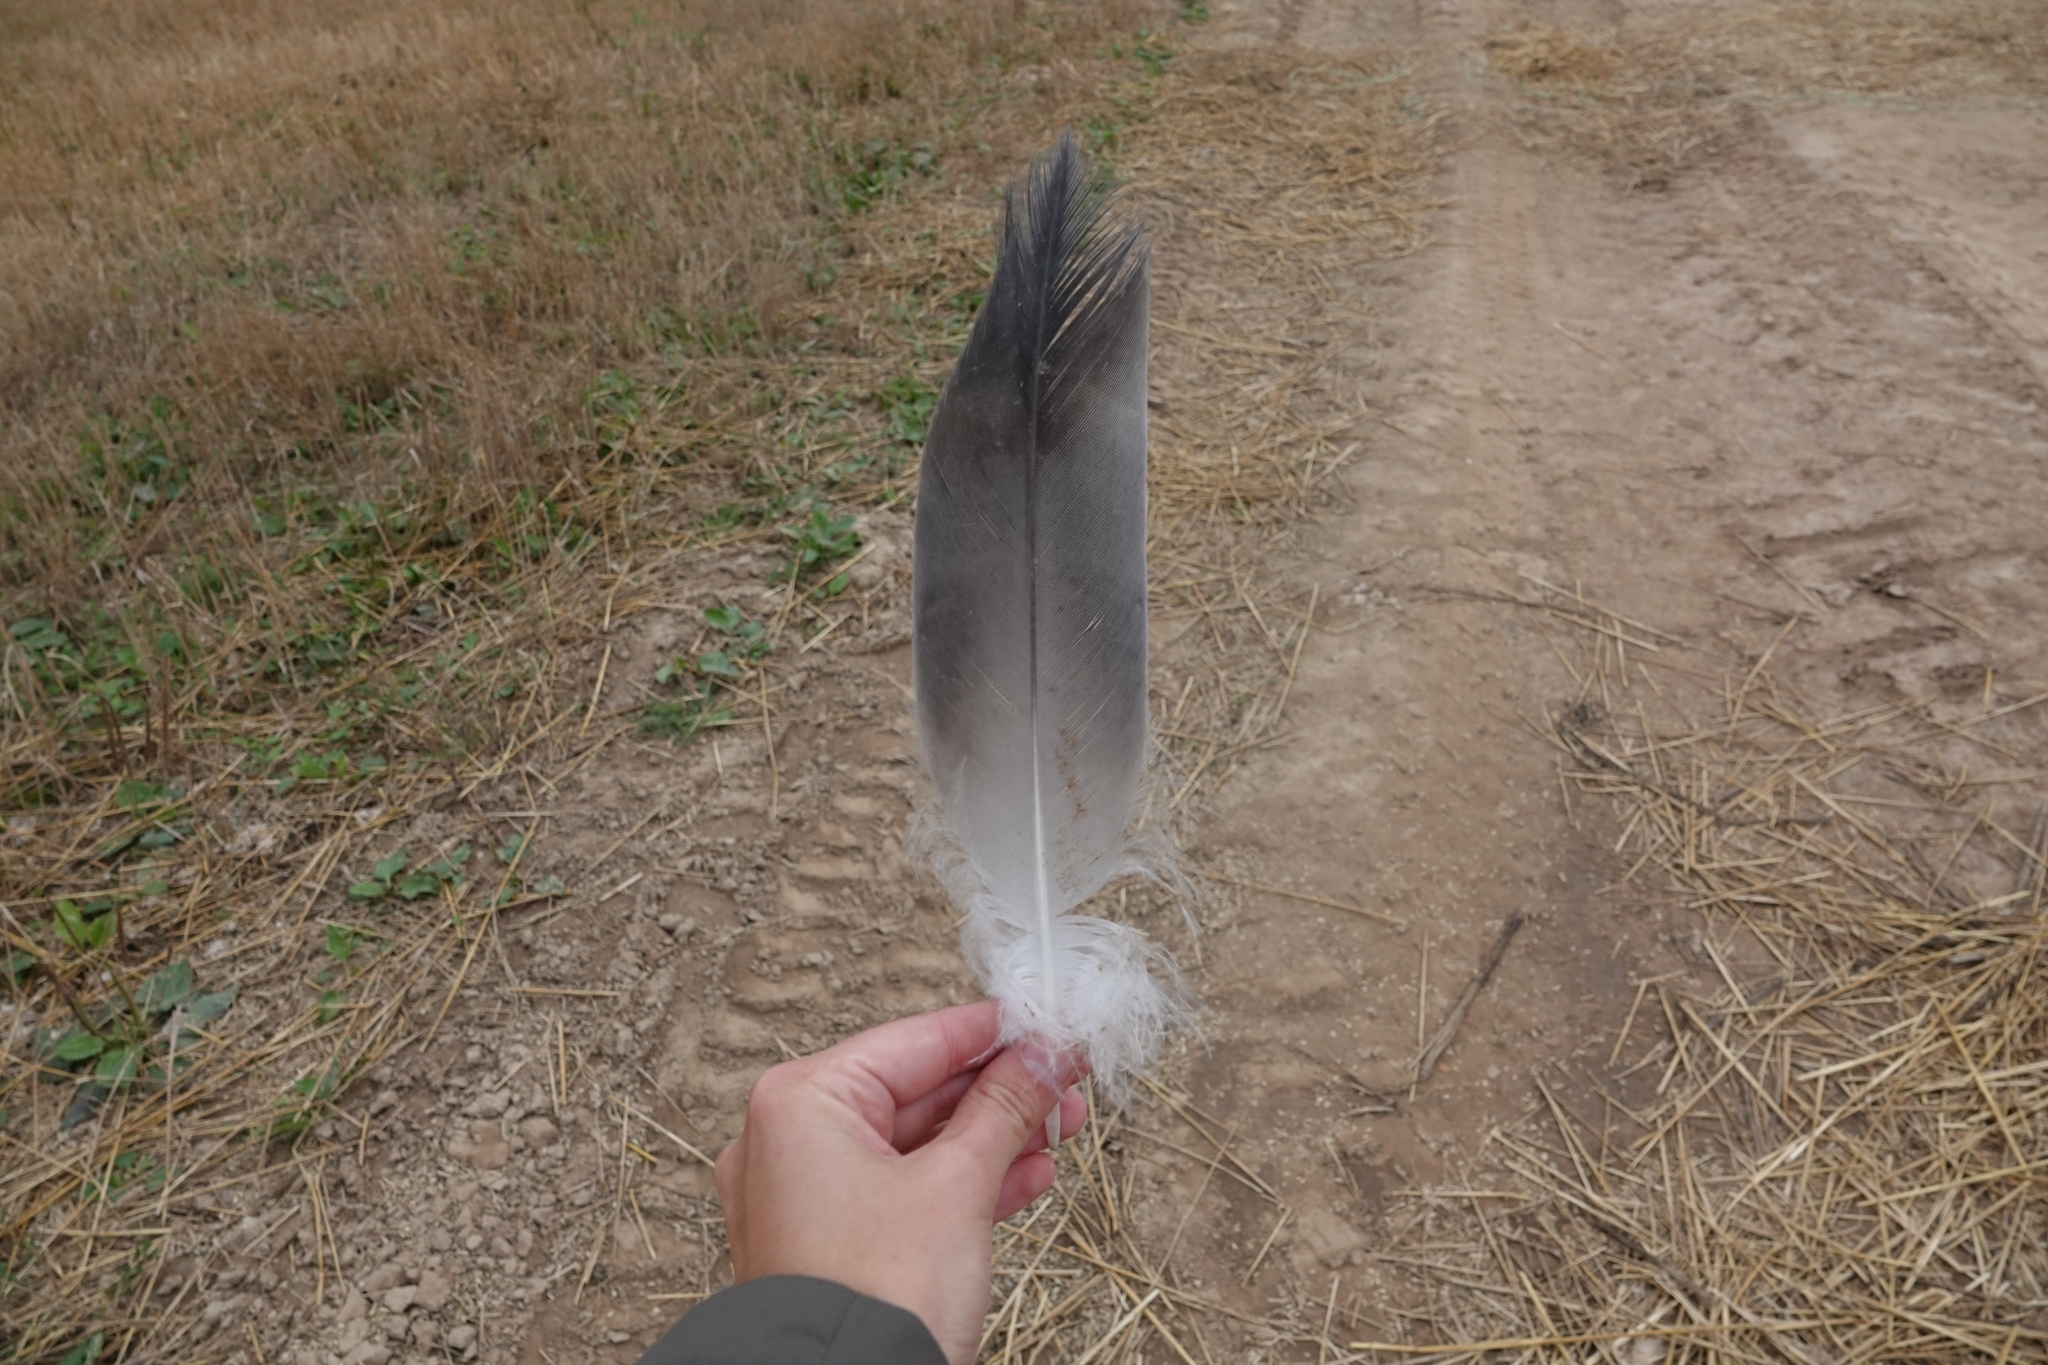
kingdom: Animalia
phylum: Chordata
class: Aves
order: Gruiformes
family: Gruidae
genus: Grus
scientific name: Grus grus
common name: Common crane
